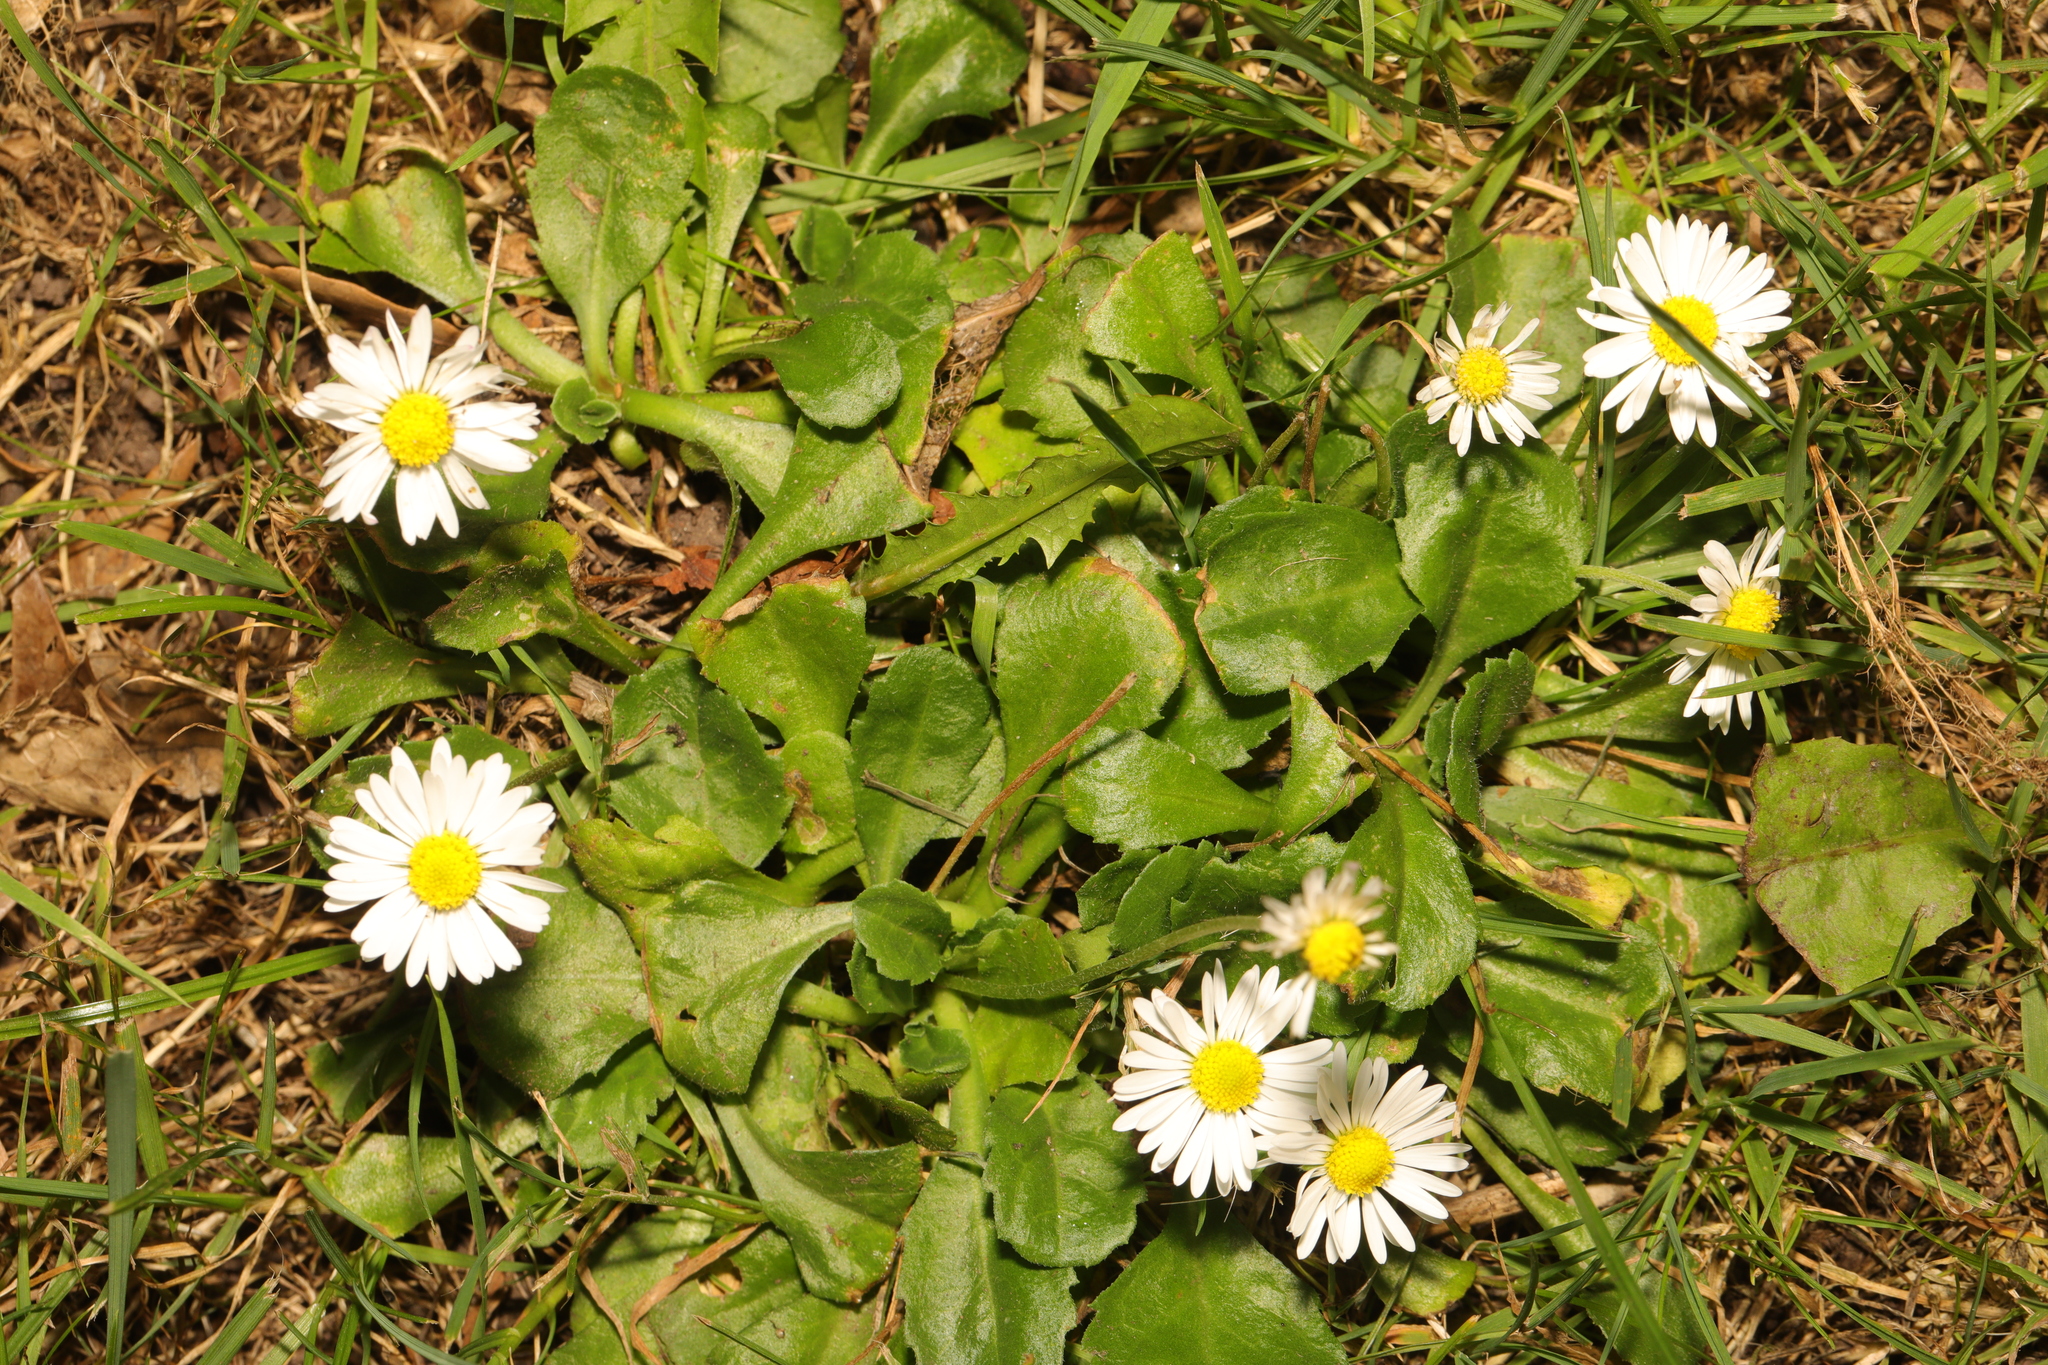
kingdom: Plantae
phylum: Tracheophyta
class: Magnoliopsida
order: Asterales
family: Asteraceae
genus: Bellis
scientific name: Bellis perennis
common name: Lawndaisy
